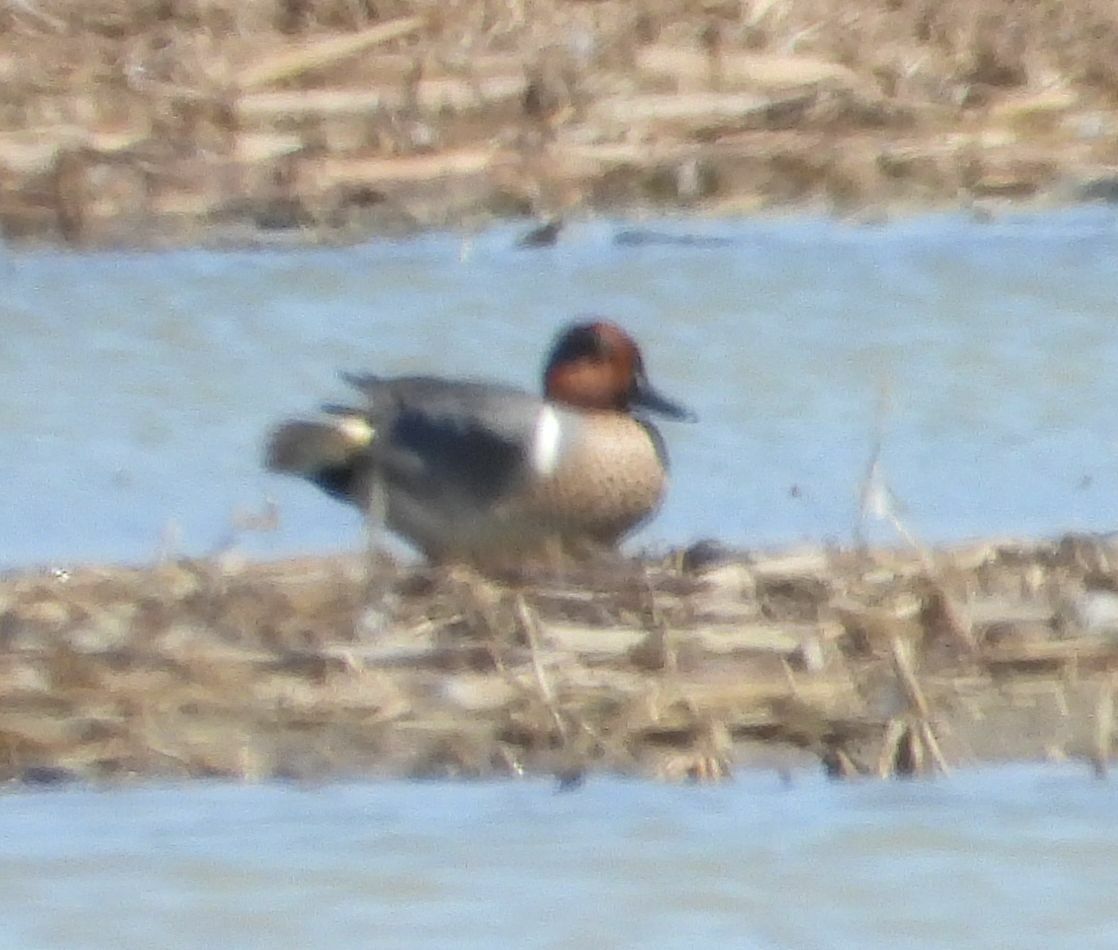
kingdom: Animalia
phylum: Chordata
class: Aves
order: Anseriformes
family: Anatidae
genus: Anas
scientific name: Anas crecca
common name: Eurasian teal
